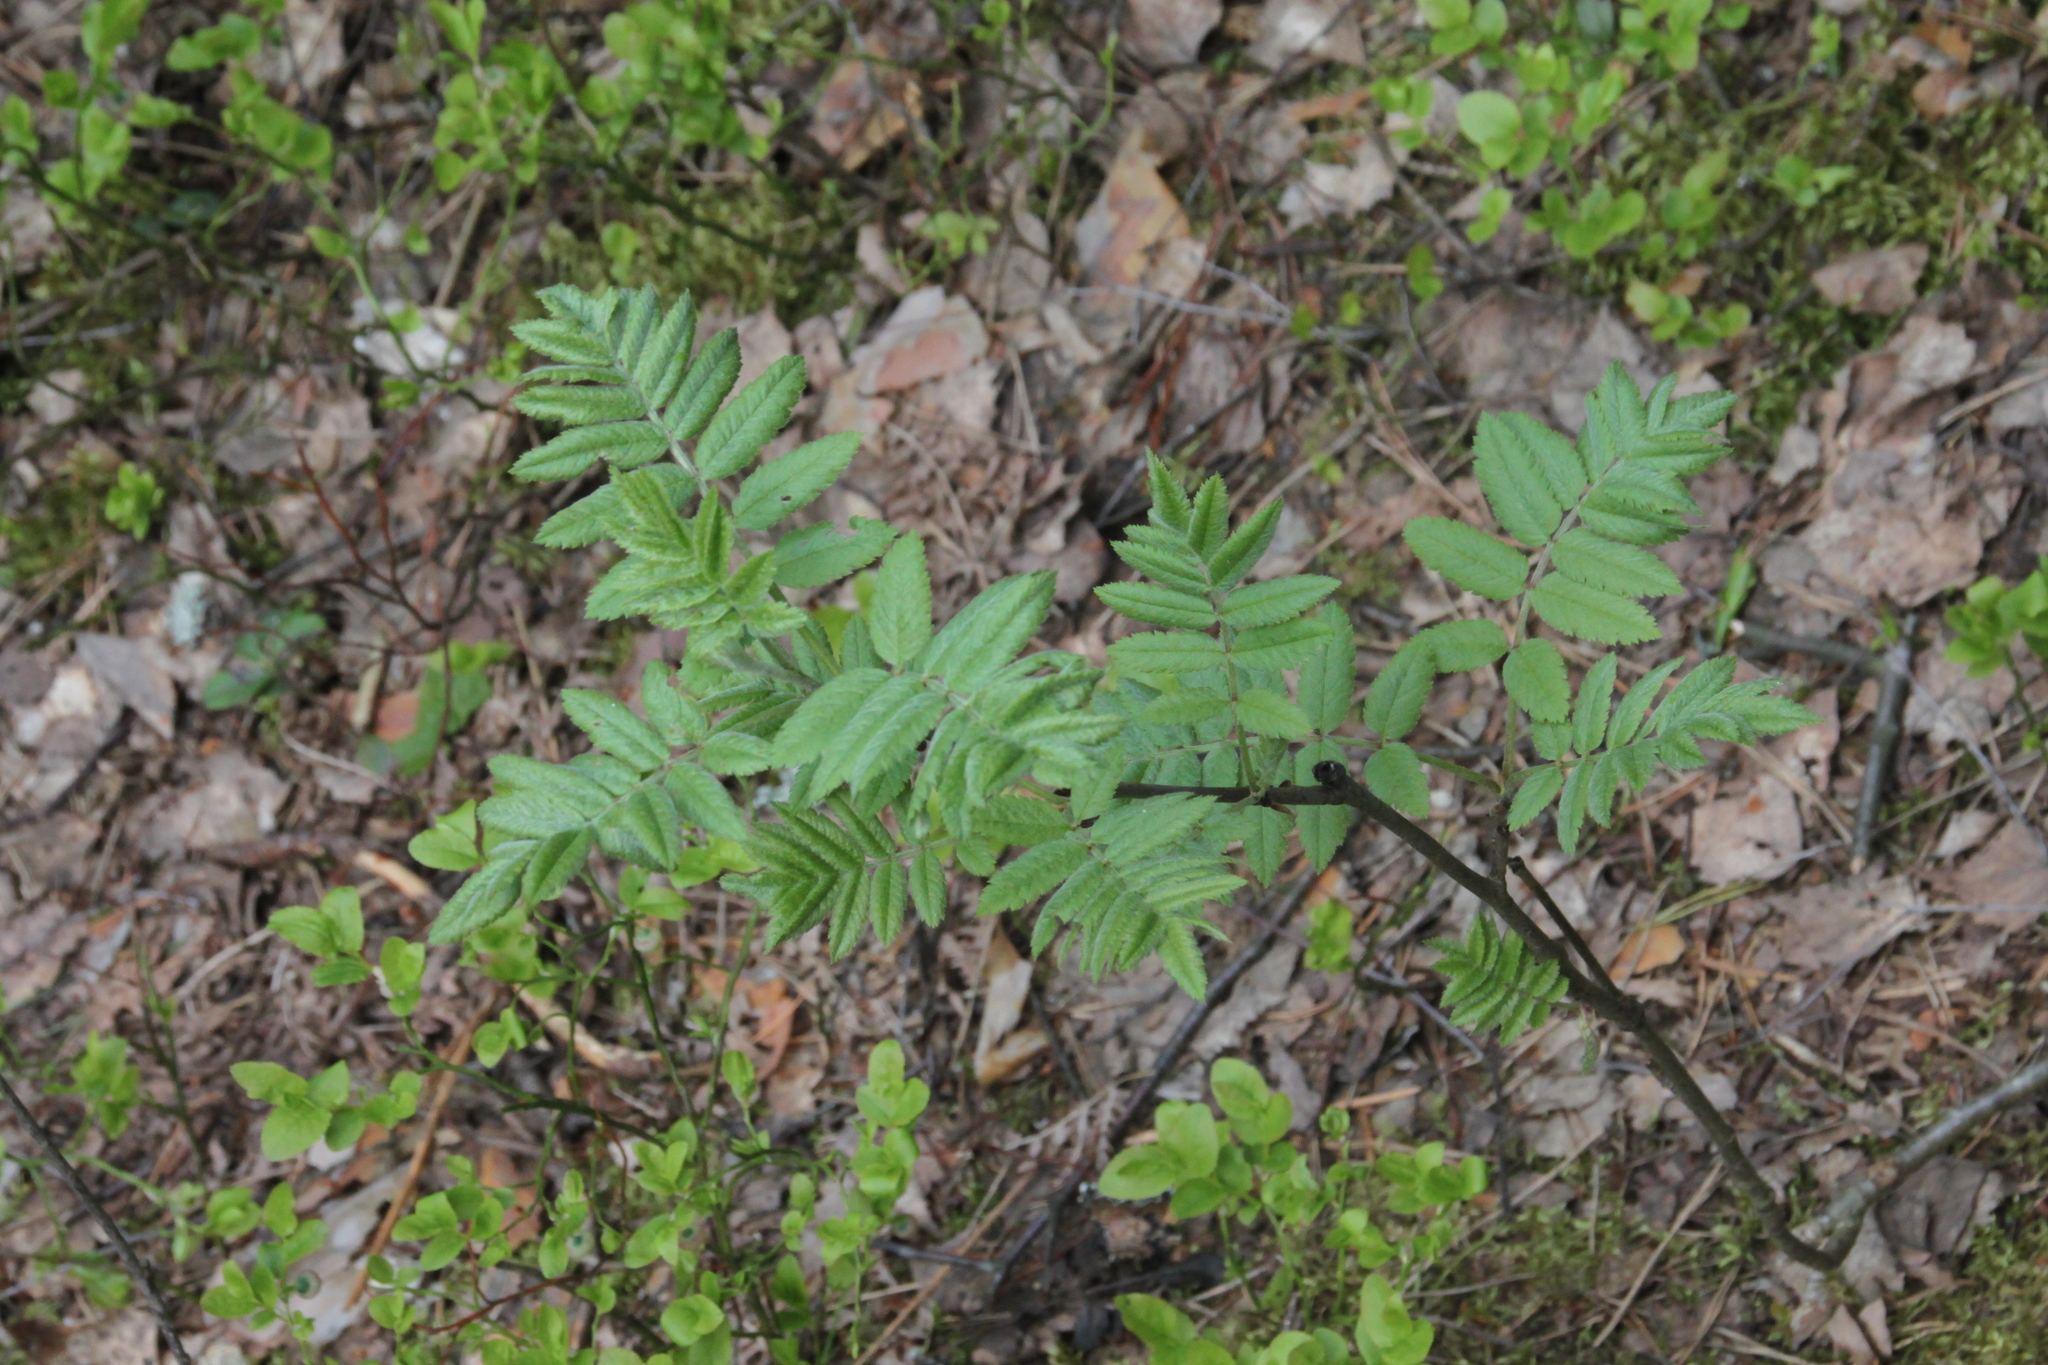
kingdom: Plantae
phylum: Tracheophyta
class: Magnoliopsida
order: Rosales
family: Rosaceae
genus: Sorbus
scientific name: Sorbus aucuparia
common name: Rowan
